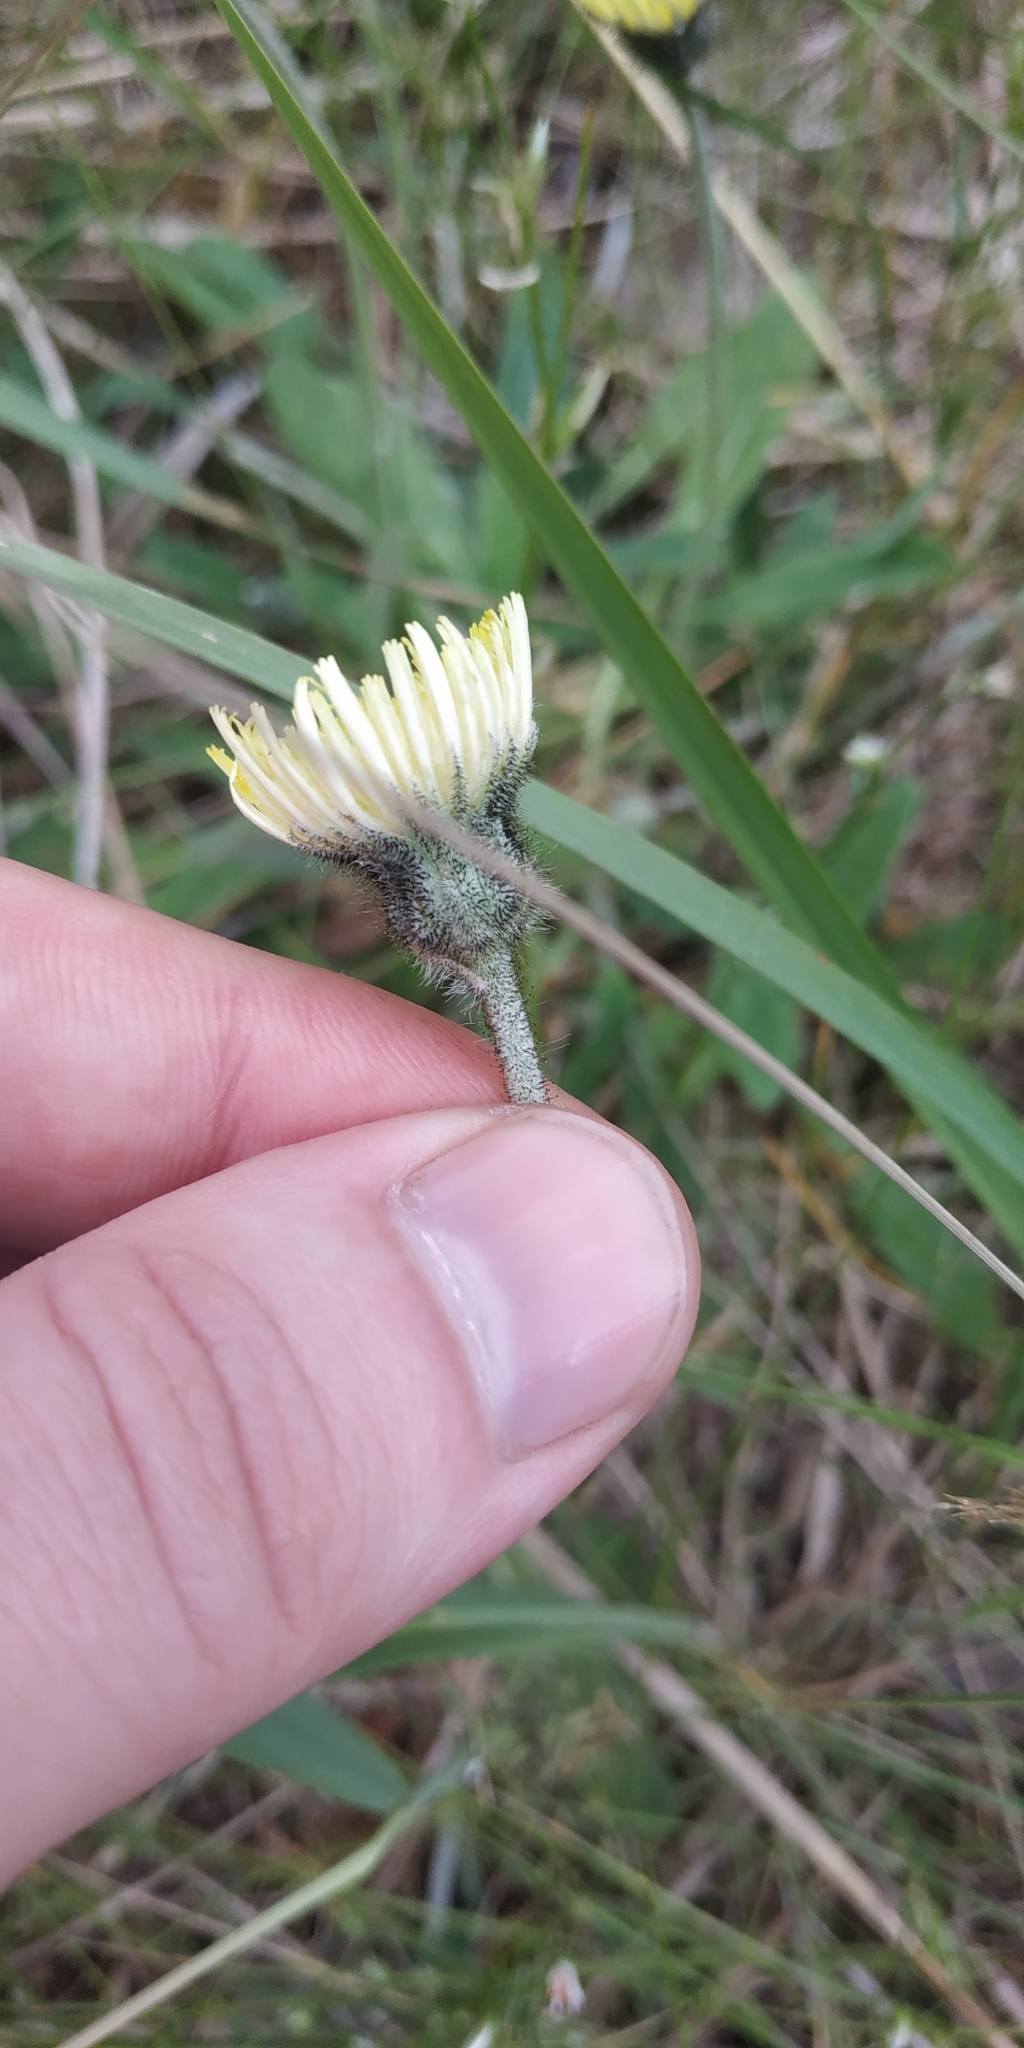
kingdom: Plantae
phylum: Tracheophyta
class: Magnoliopsida
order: Asterales
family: Asteraceae
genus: Pilosella
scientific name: Pilosella officinarum
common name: Mouse-ear hawkweed
